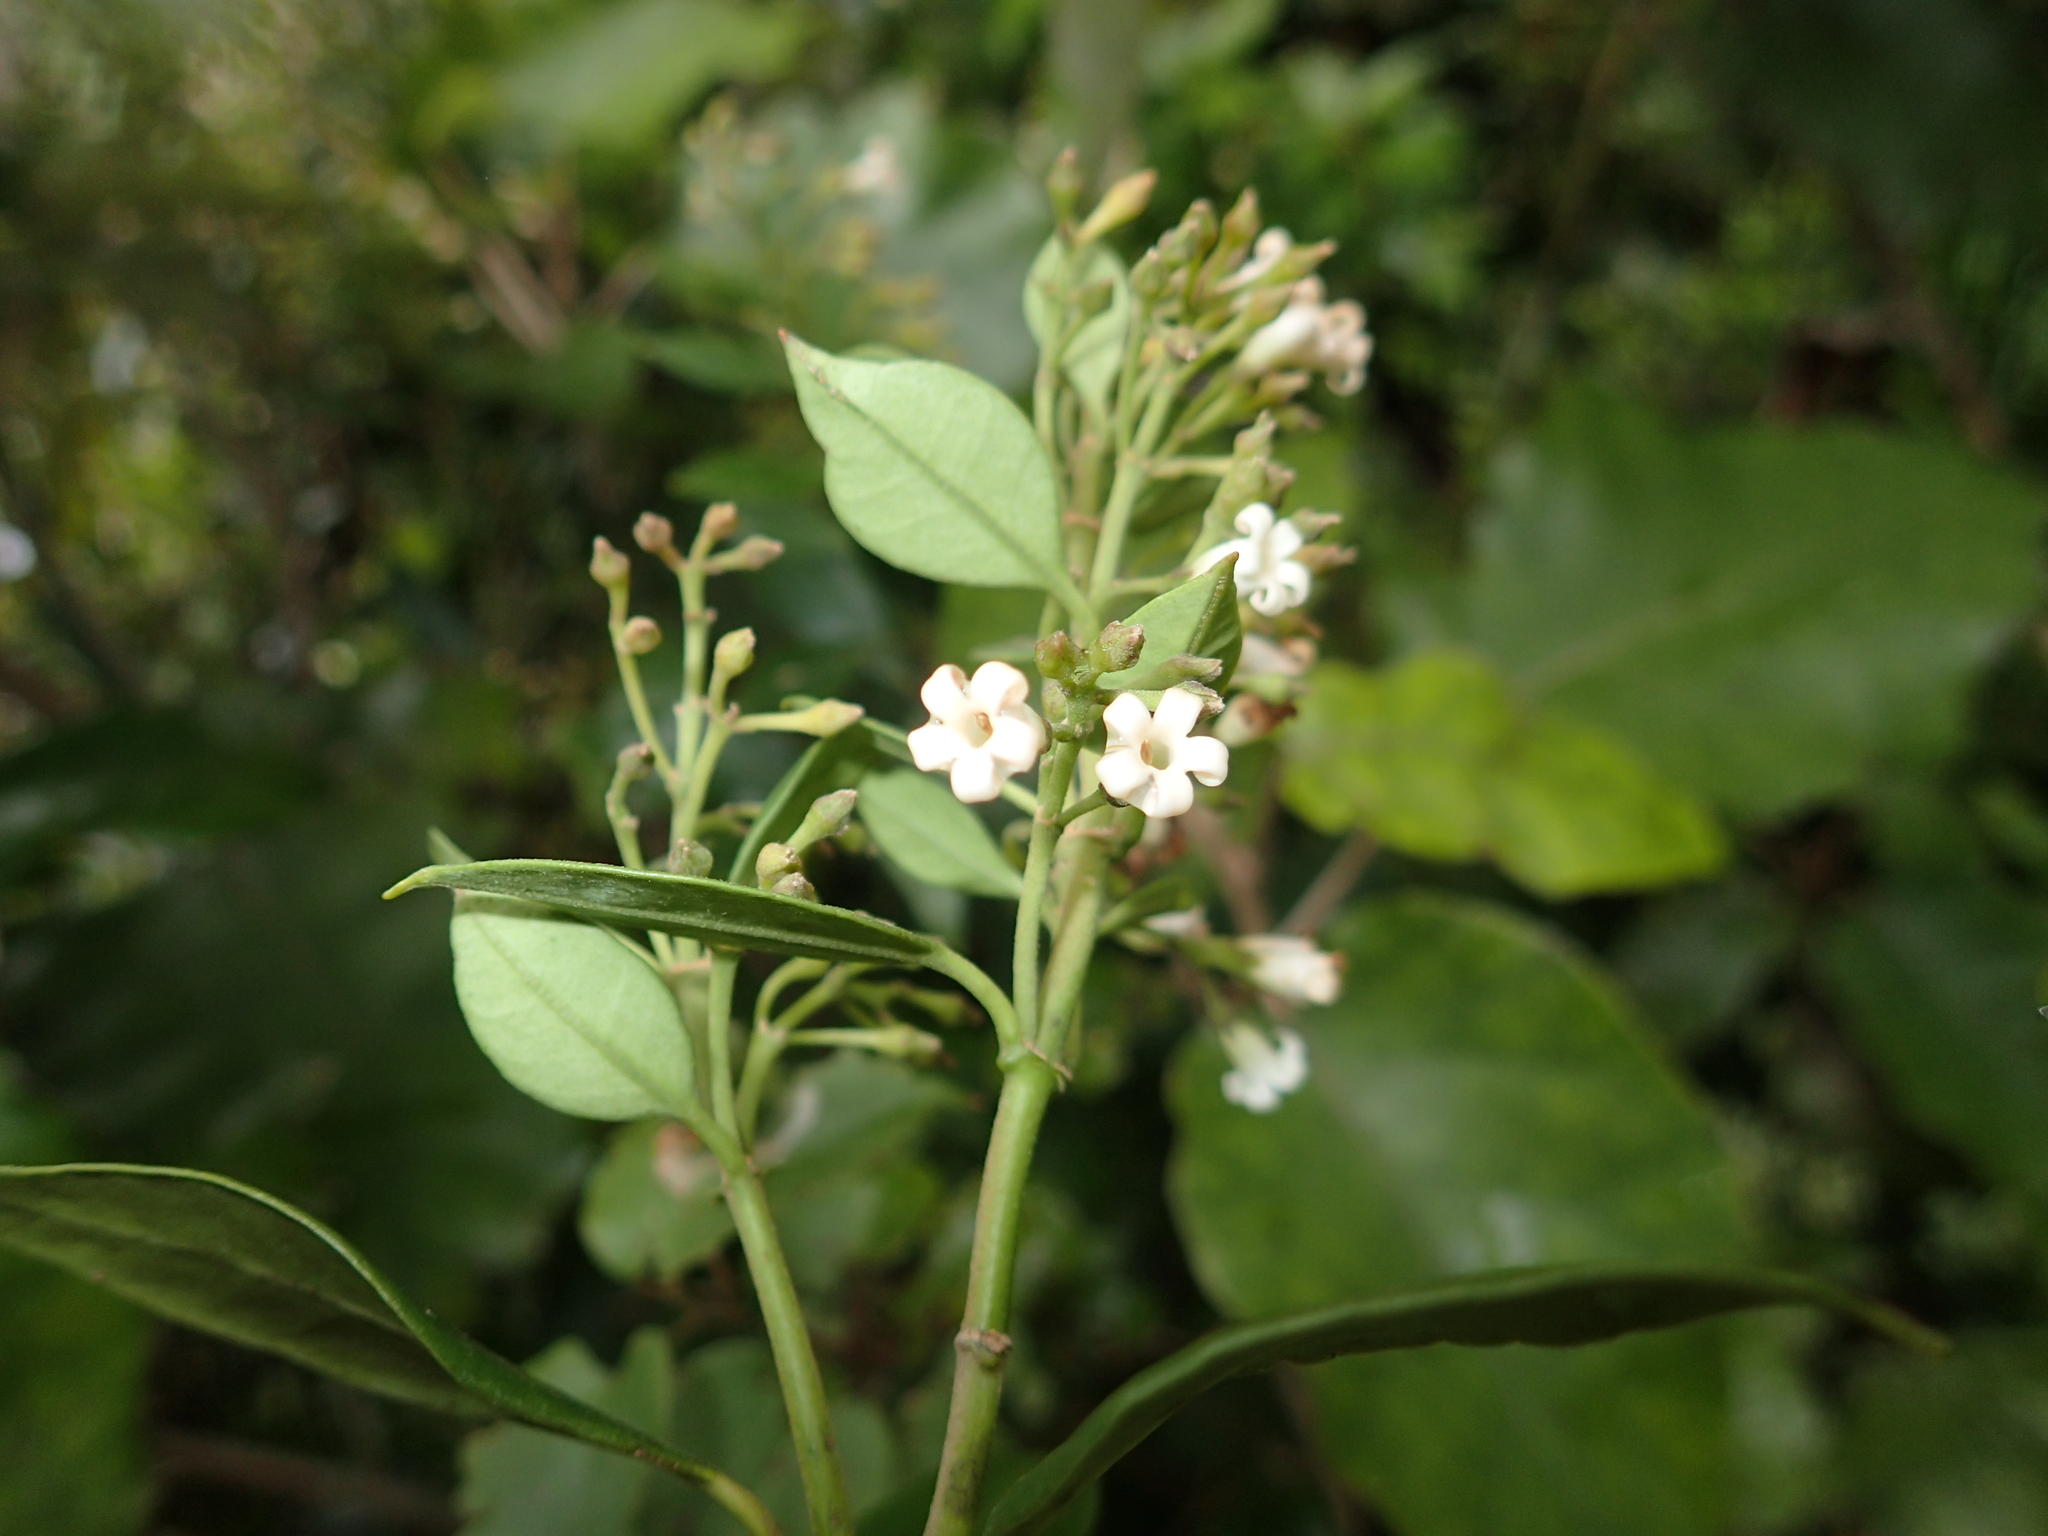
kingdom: Plantae
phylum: Tracheophyta
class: Magnoliopsida
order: Gentianales
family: Apocynaceae
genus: Parsonsia
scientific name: Parsonsia heterophylla
